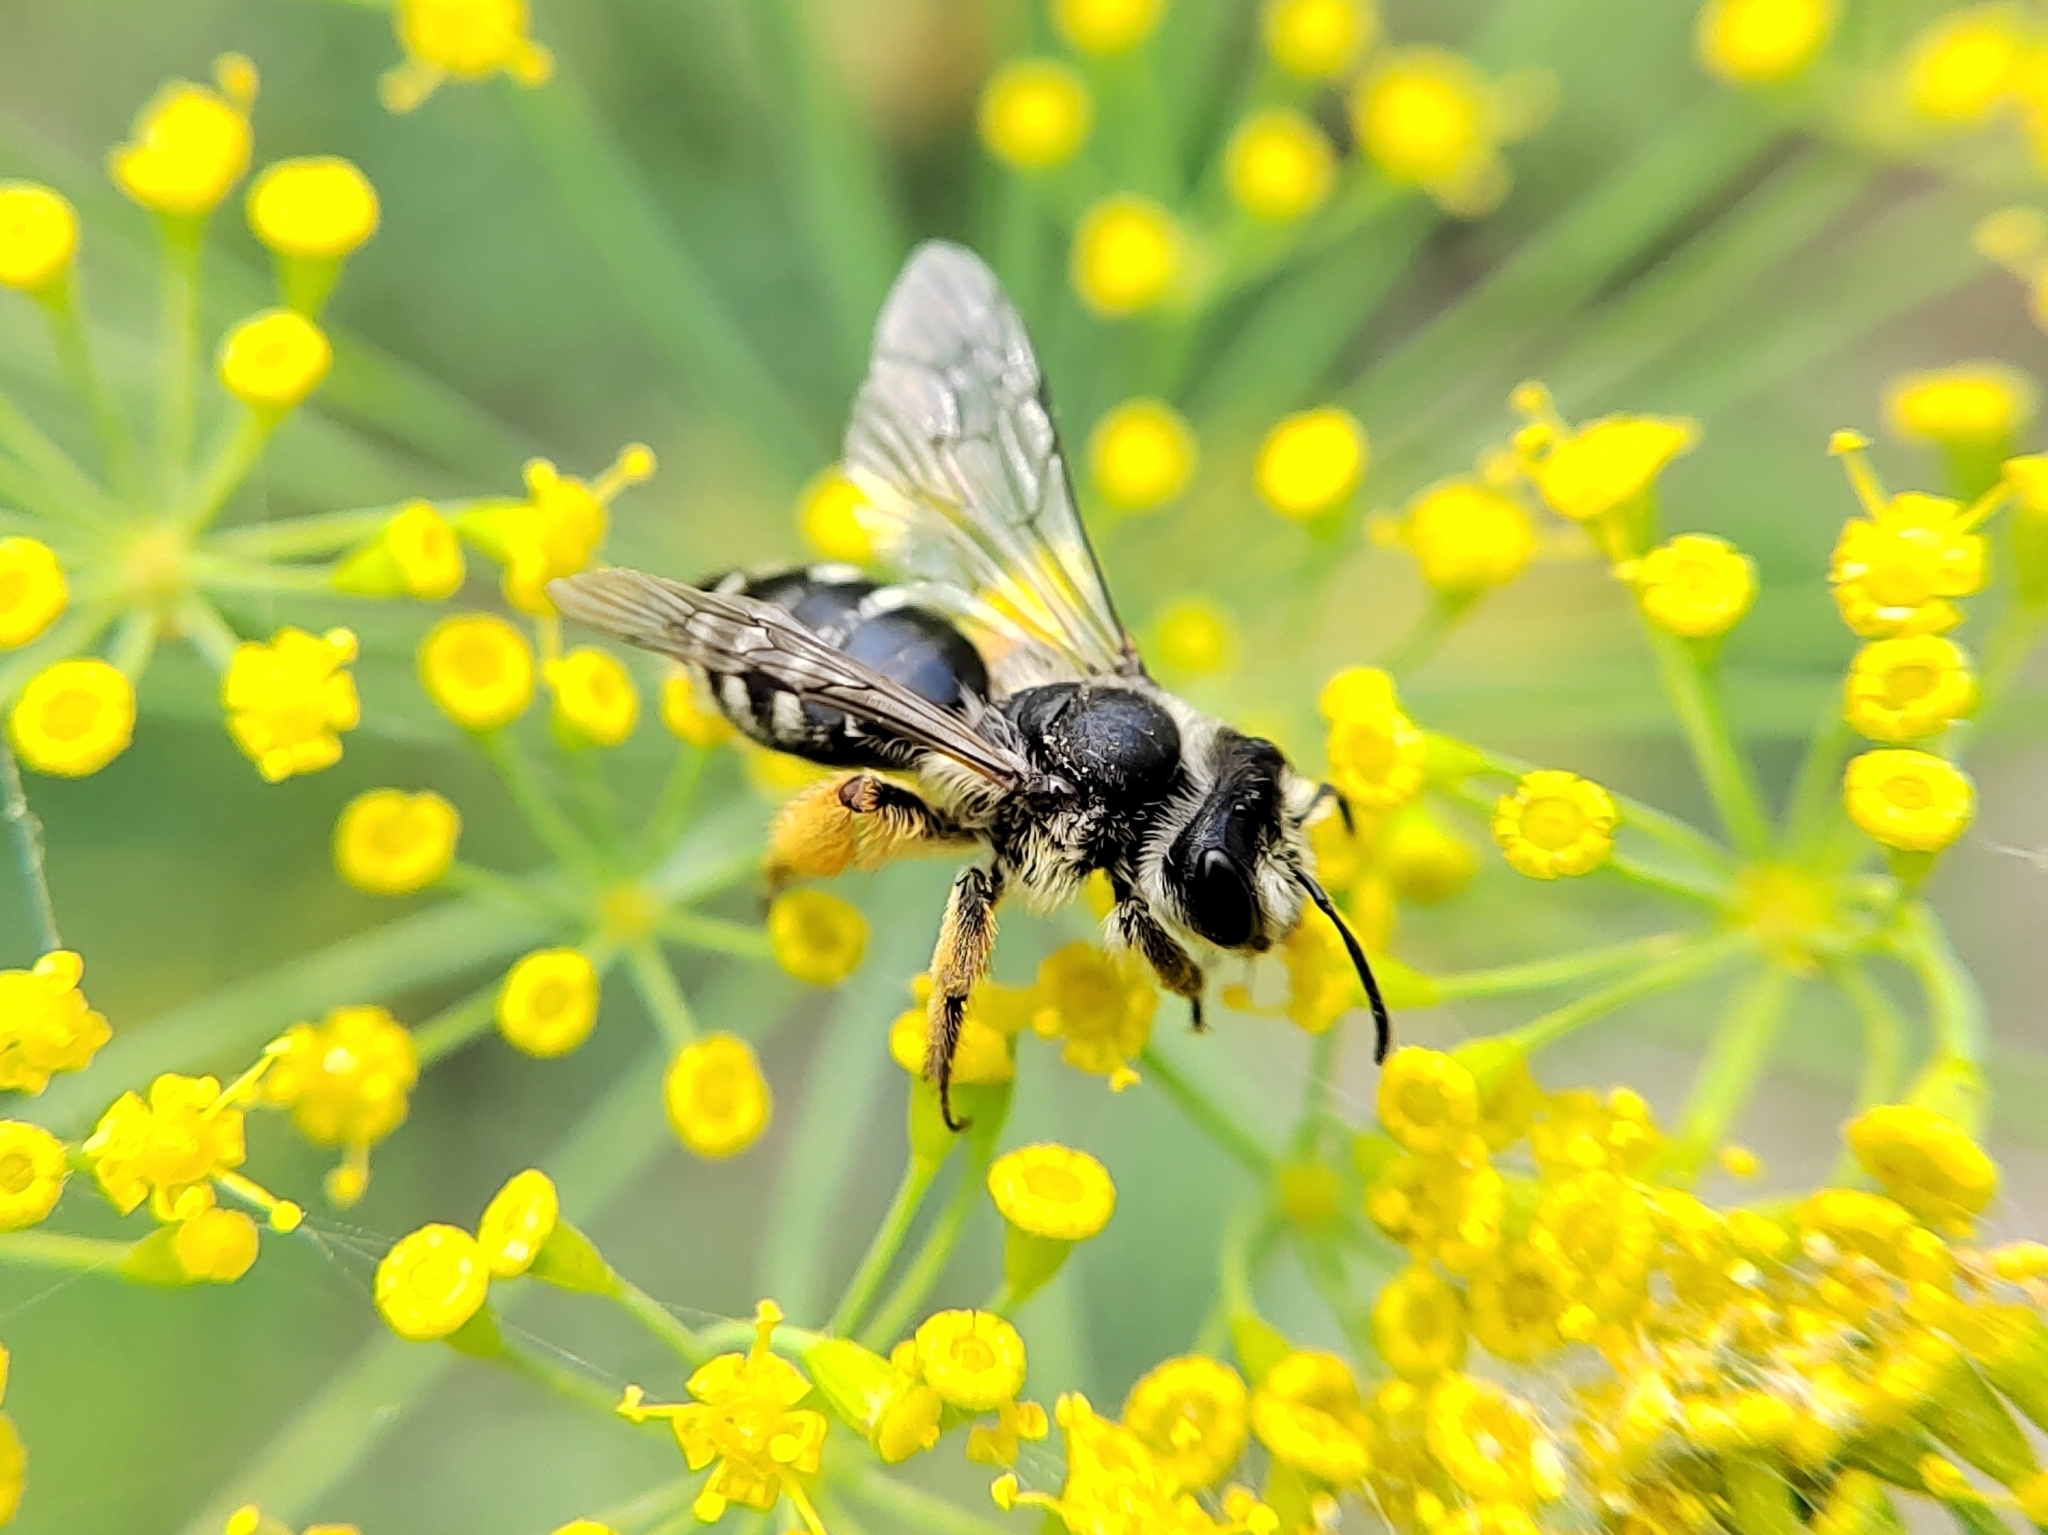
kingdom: Animalia
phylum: Arthropoda
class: Insecta
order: Hymenoptera
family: Andrenidae
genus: Andrena
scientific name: Andrena
